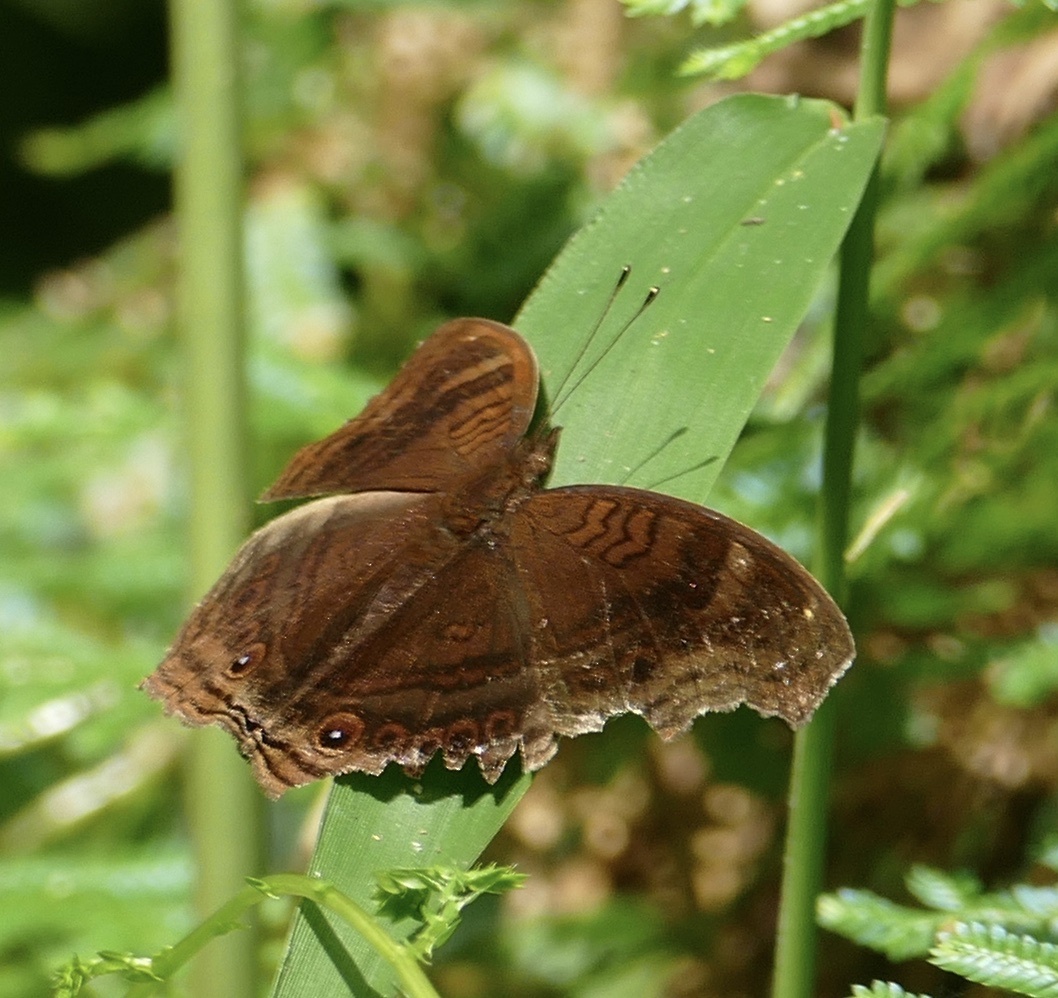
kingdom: Animalia
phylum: Arthropoda
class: Insecta
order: Lepidoptera
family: Nymphalidae
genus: Junonia
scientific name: Junonia stygia
